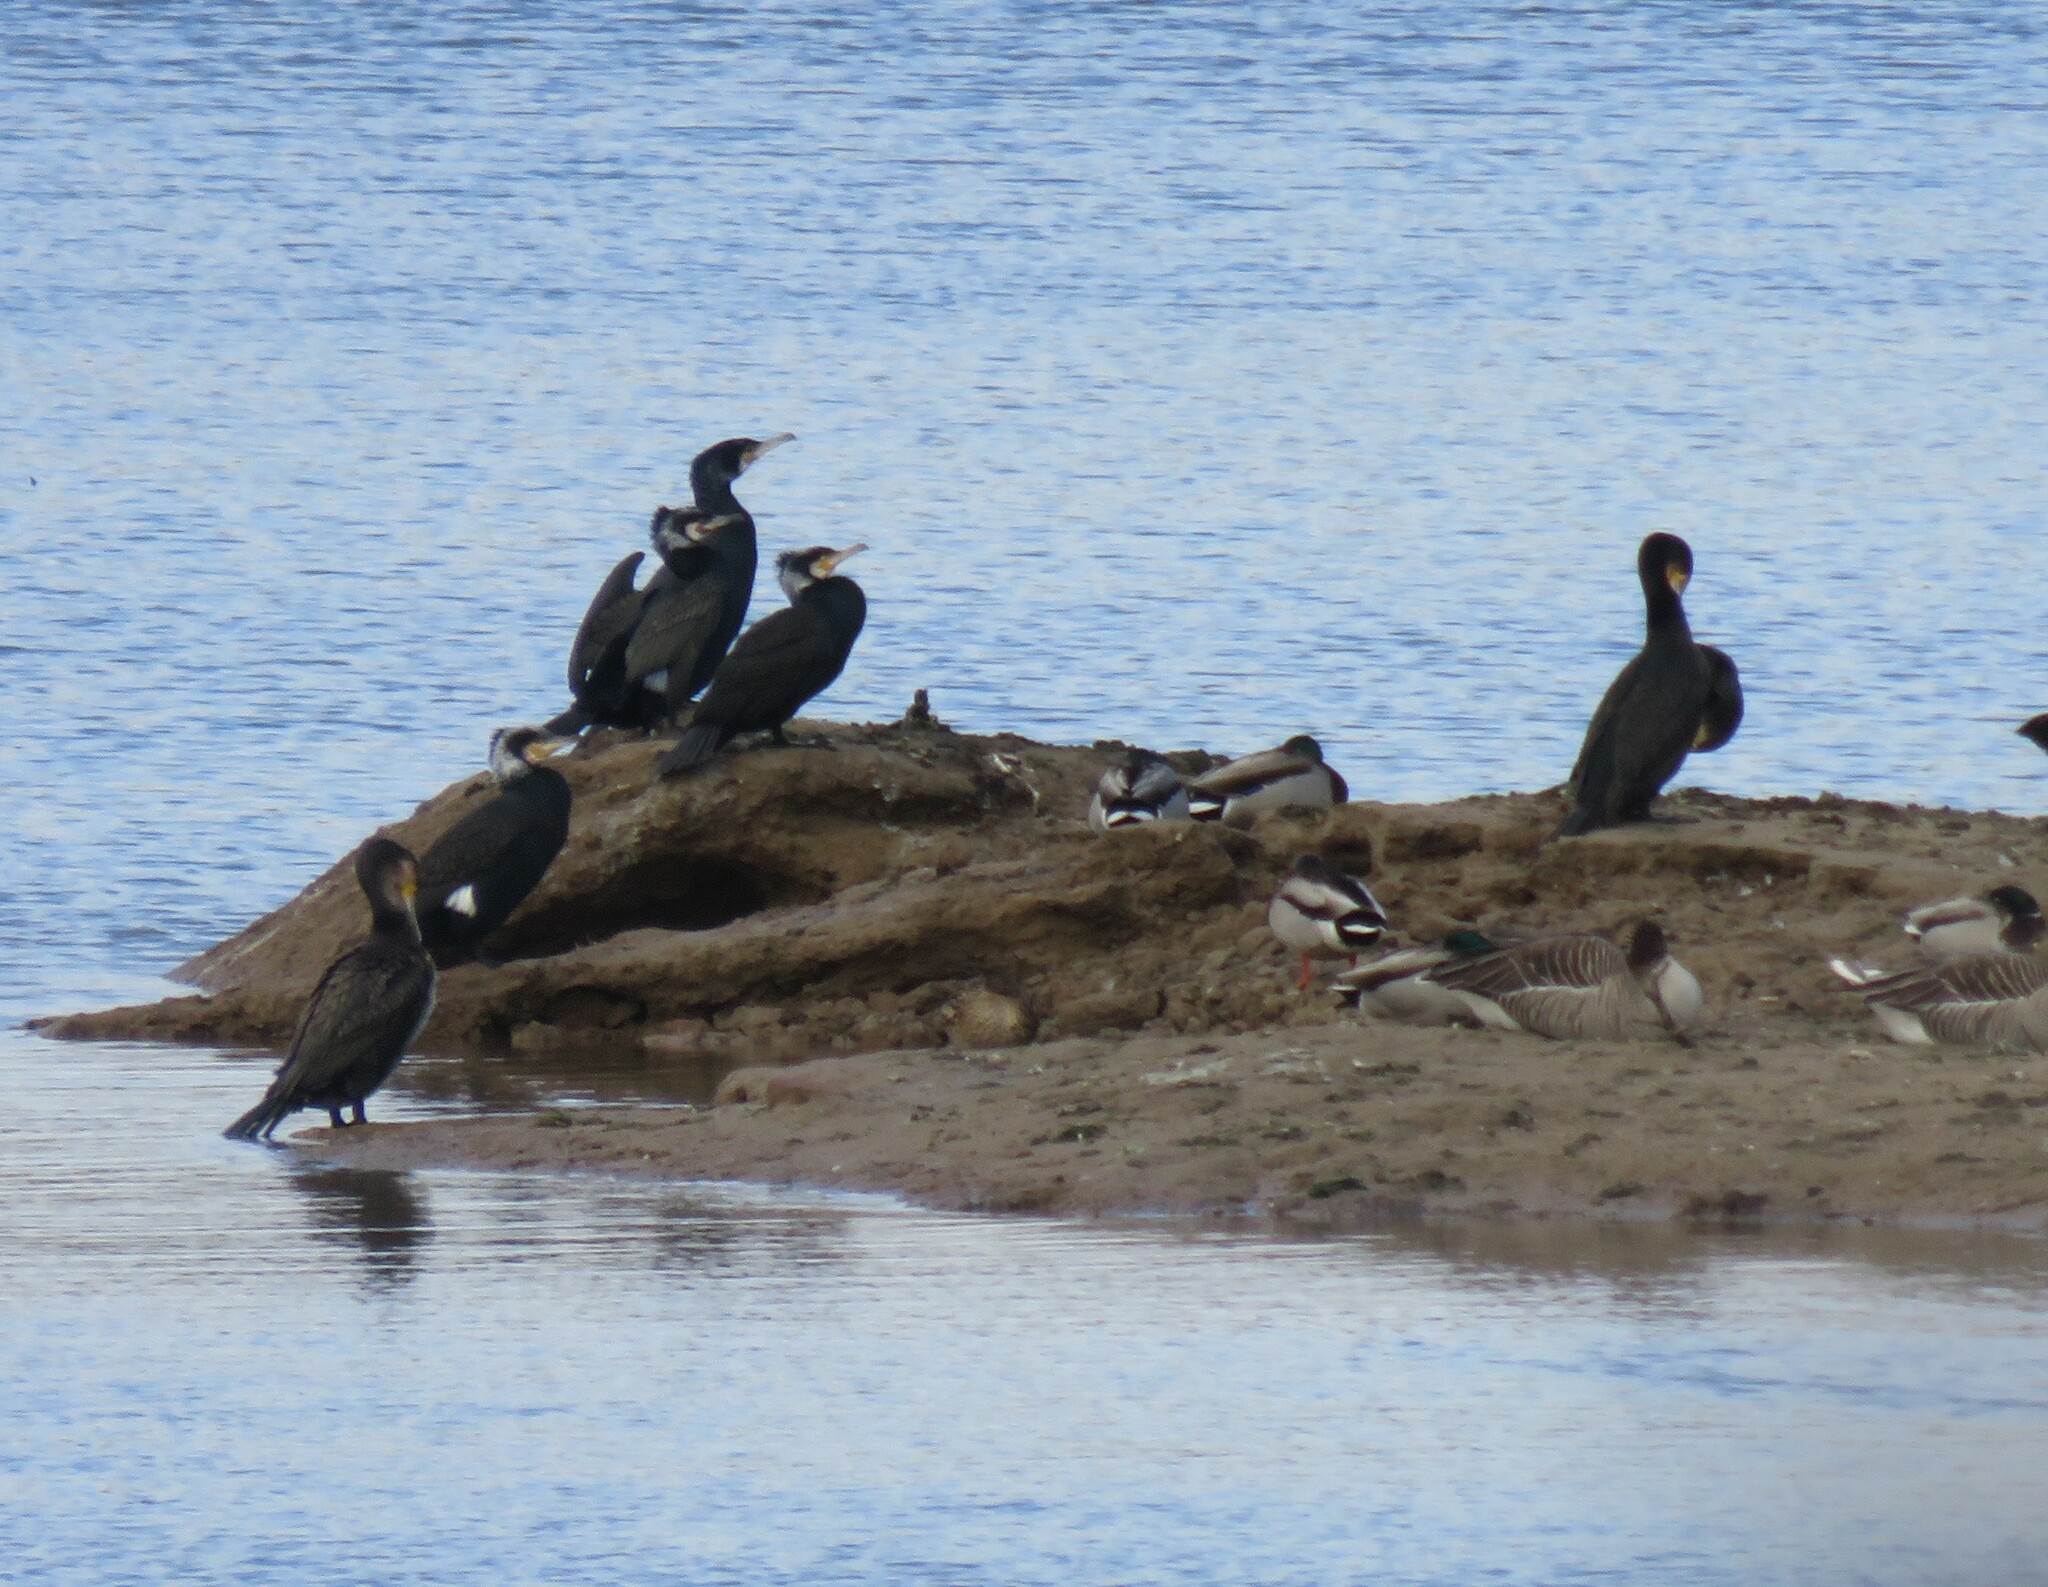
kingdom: Animalia
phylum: Chordata
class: Aves
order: Suliformes
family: Phalacrocoracidae
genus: Phalacrocorax
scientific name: Phalacrocorax carbo
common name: Great cormorant
